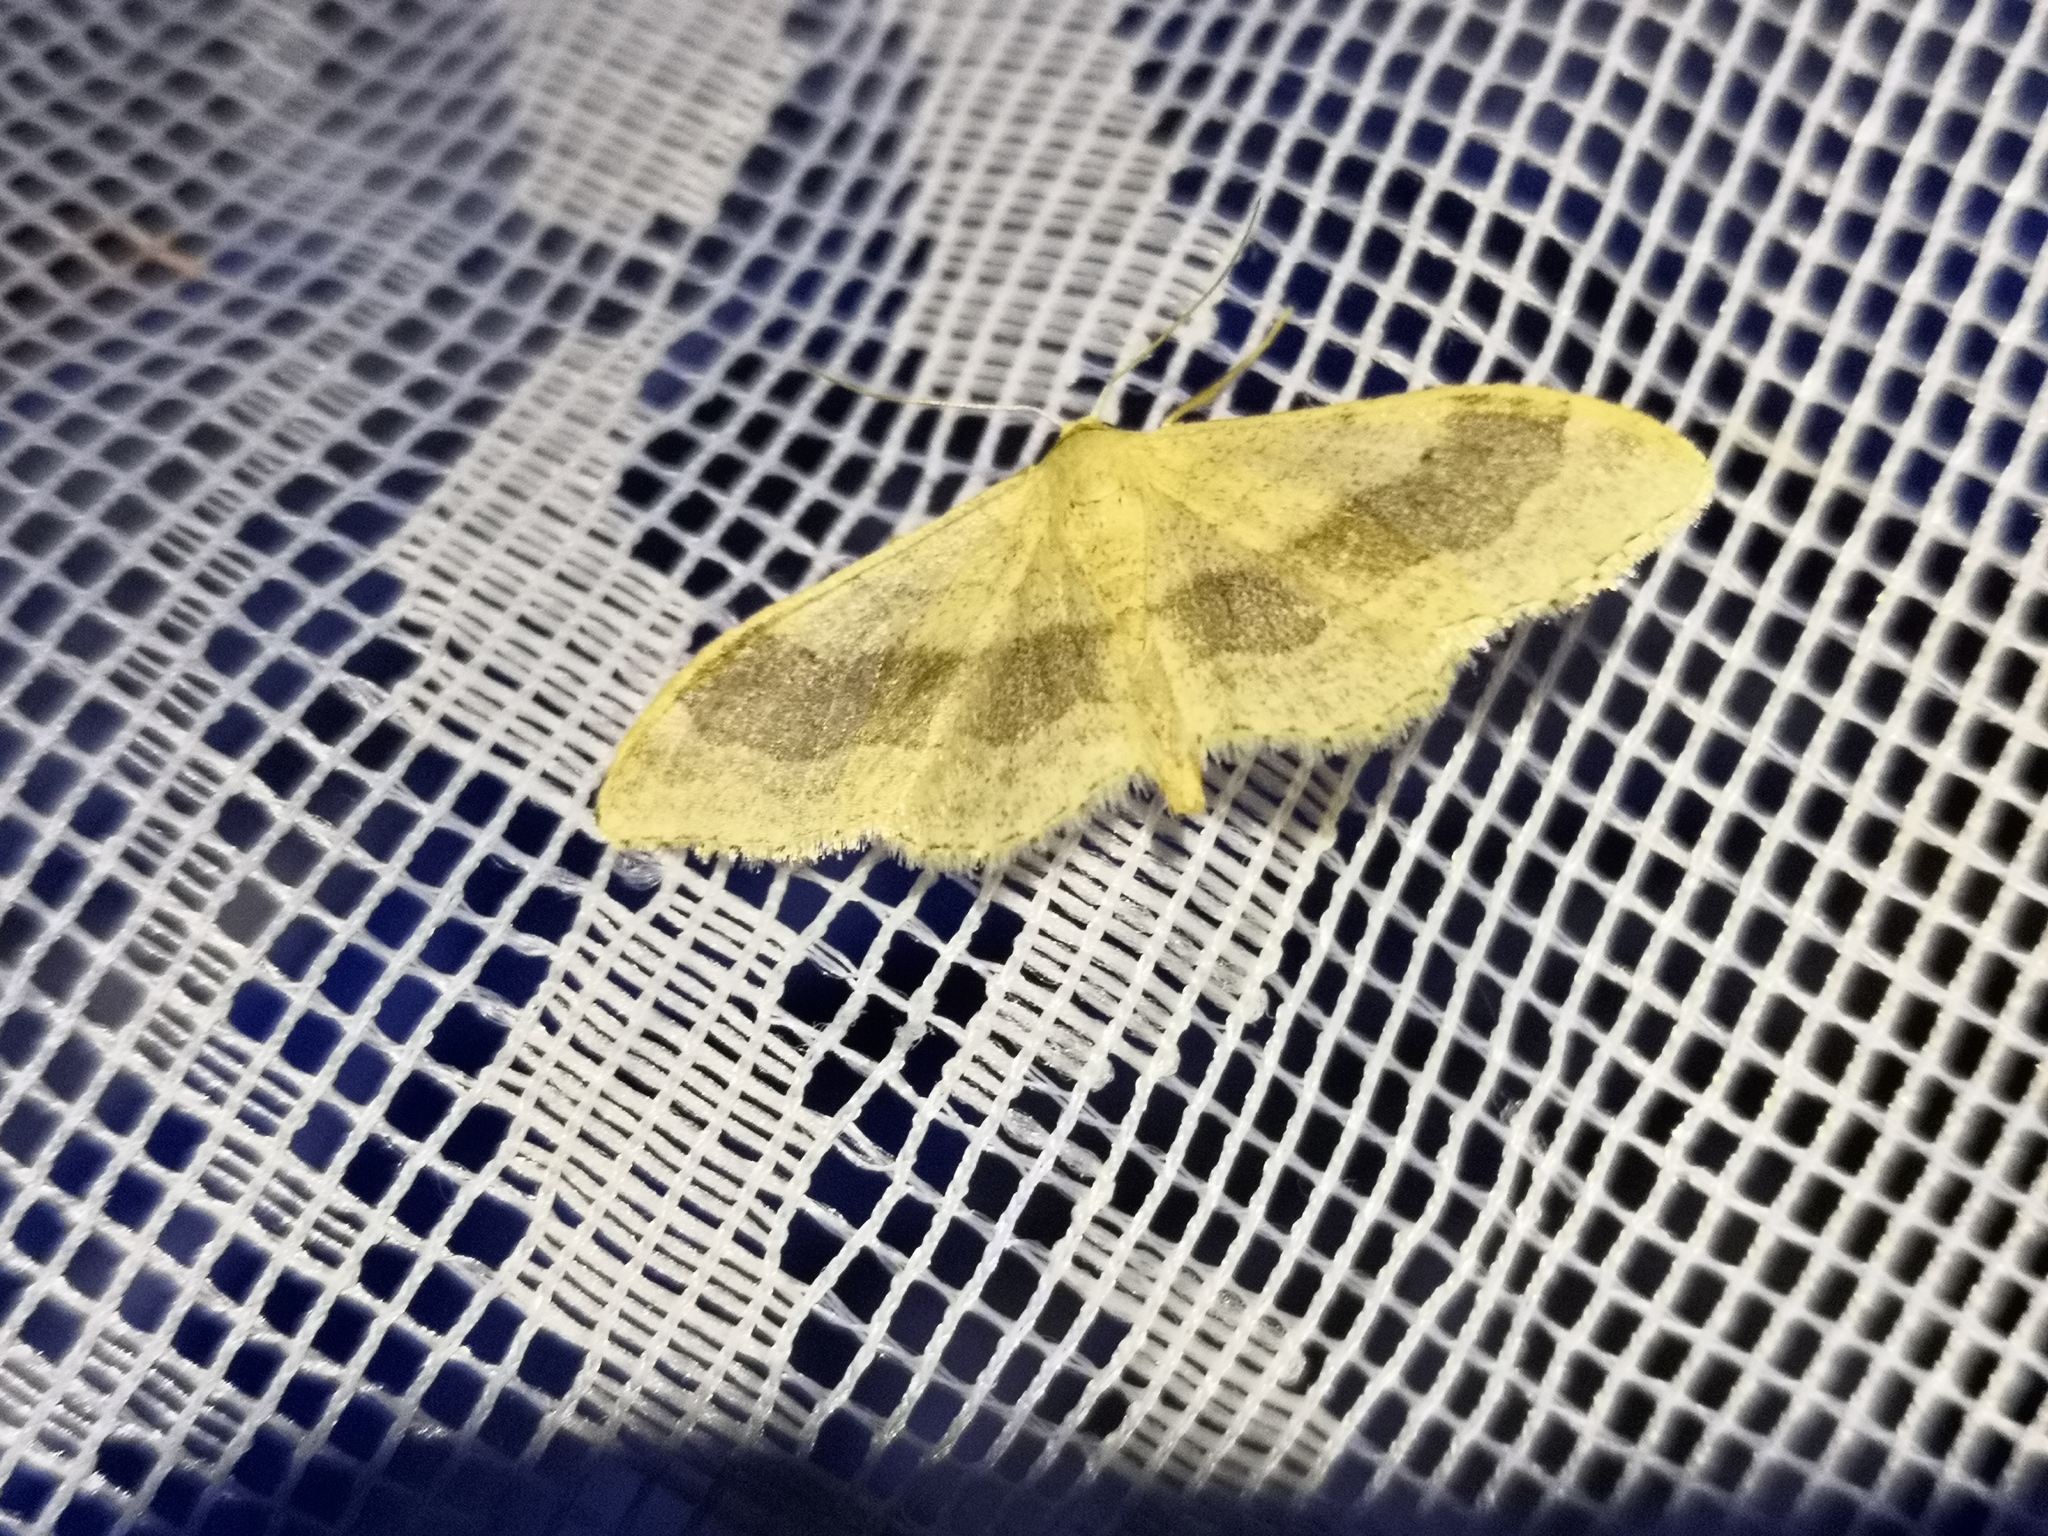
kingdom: Animalia
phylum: Arthropoda
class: Insecta
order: Lepidoptera
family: Geometridae
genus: Idaea
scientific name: Idaea aversata
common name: Riband wave
